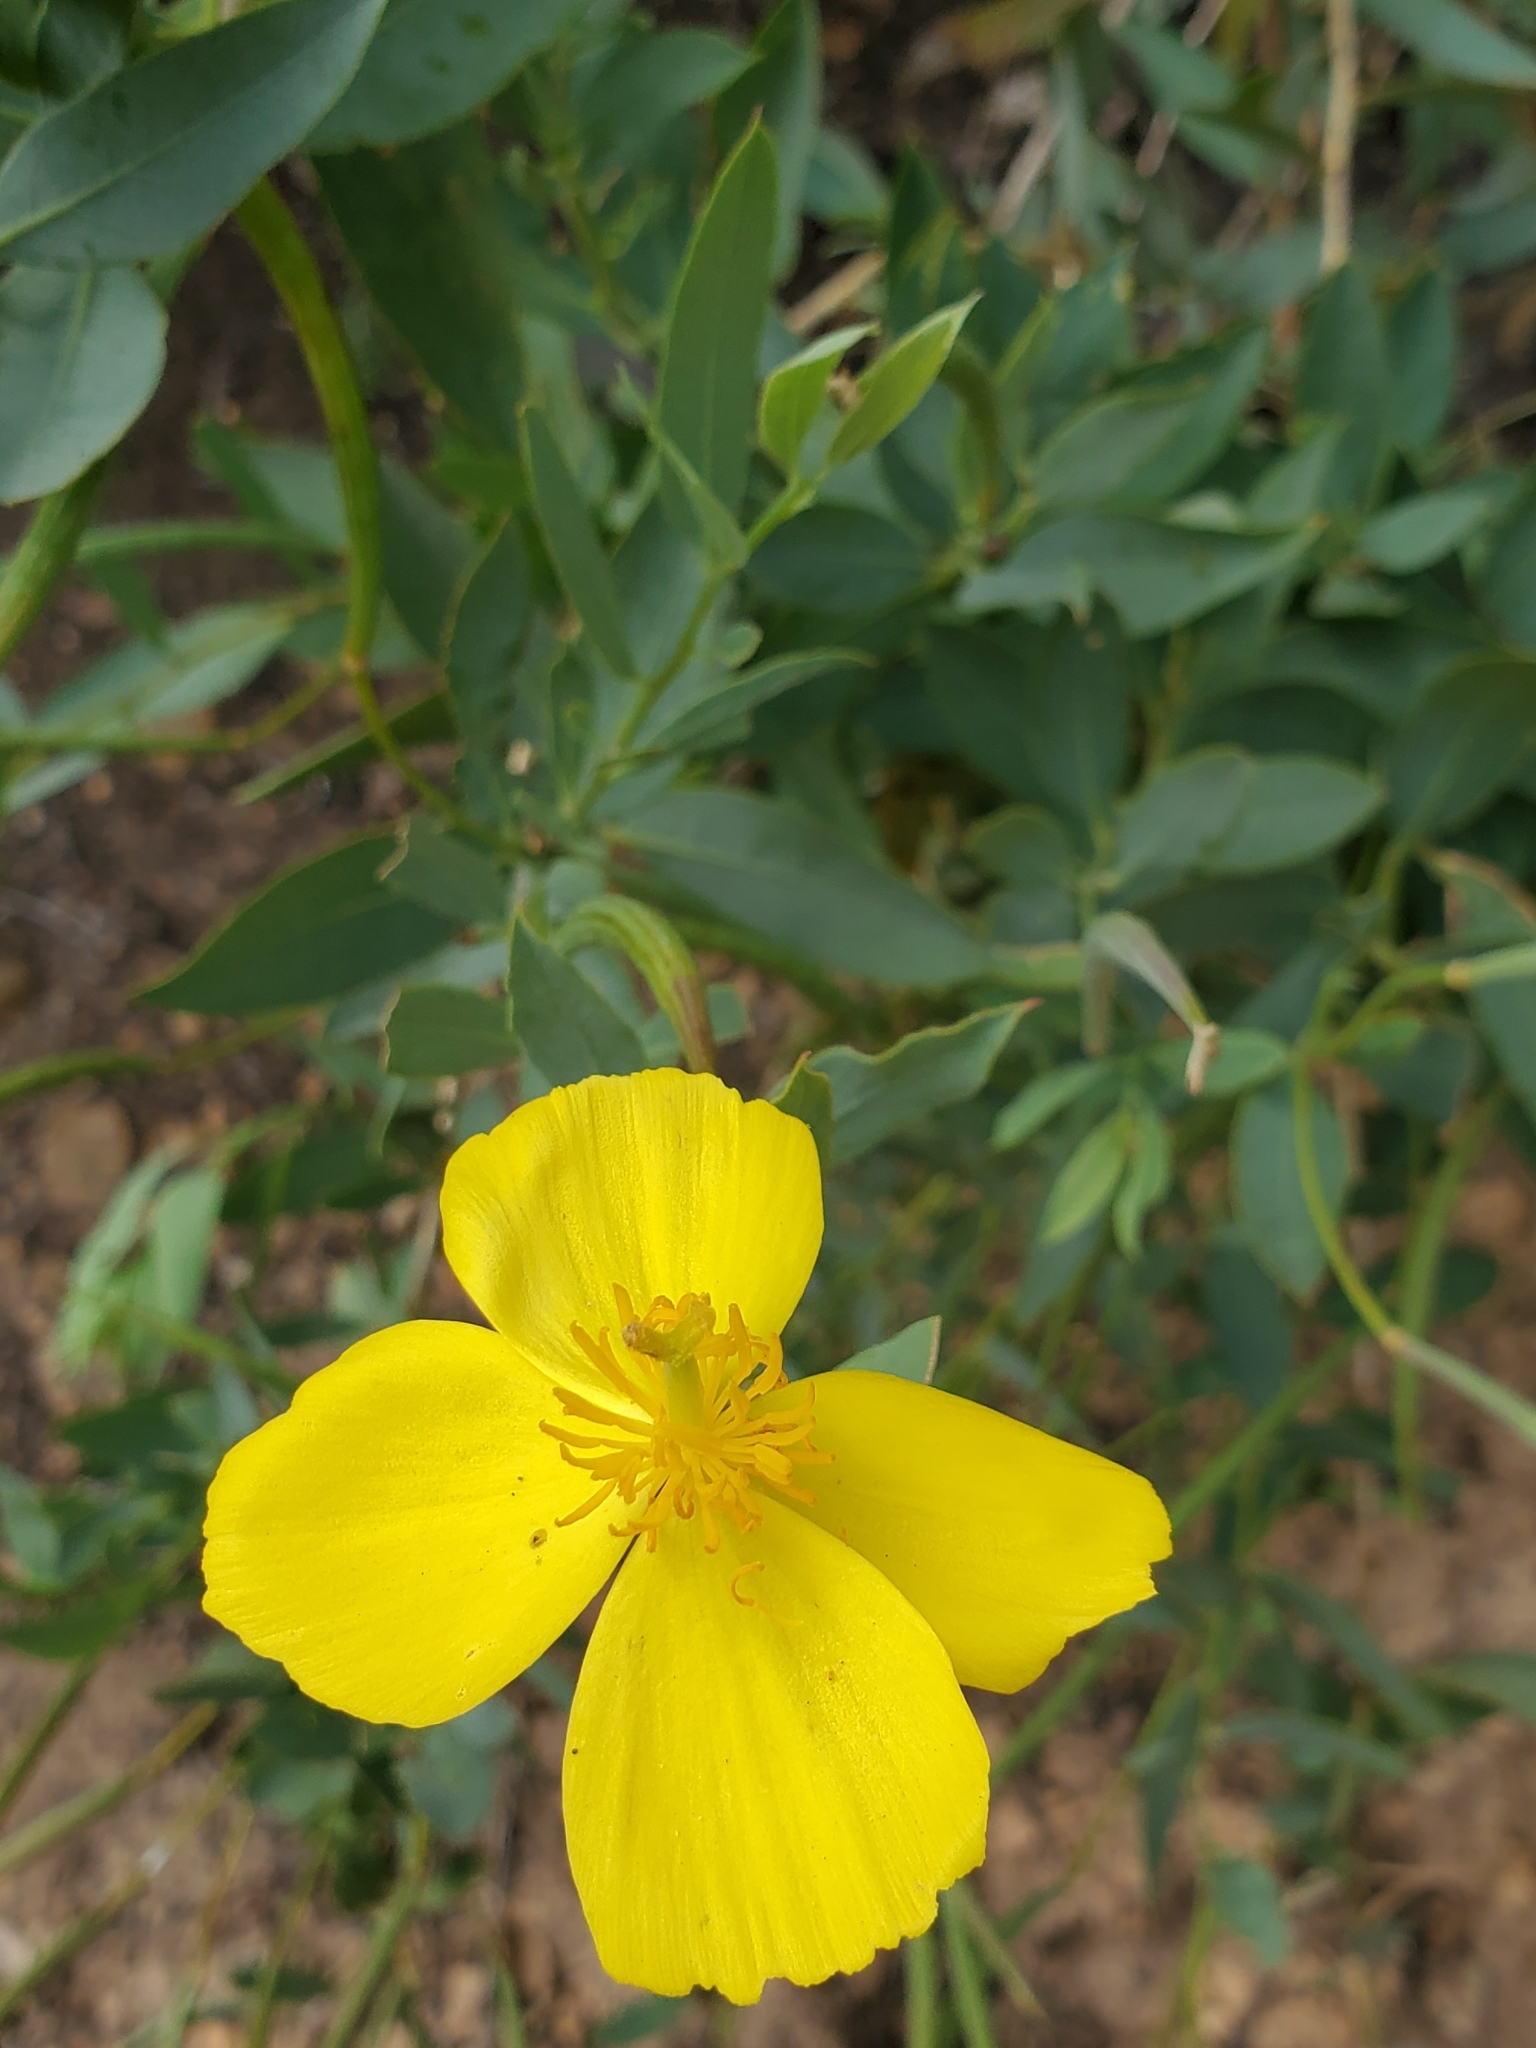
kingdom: Plantae
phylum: Tracheophyta
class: Magnoliopsida
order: Ranunculales
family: Papaveraceae
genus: Dendromecon
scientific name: Dendromecon rigida
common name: Tree poppy
